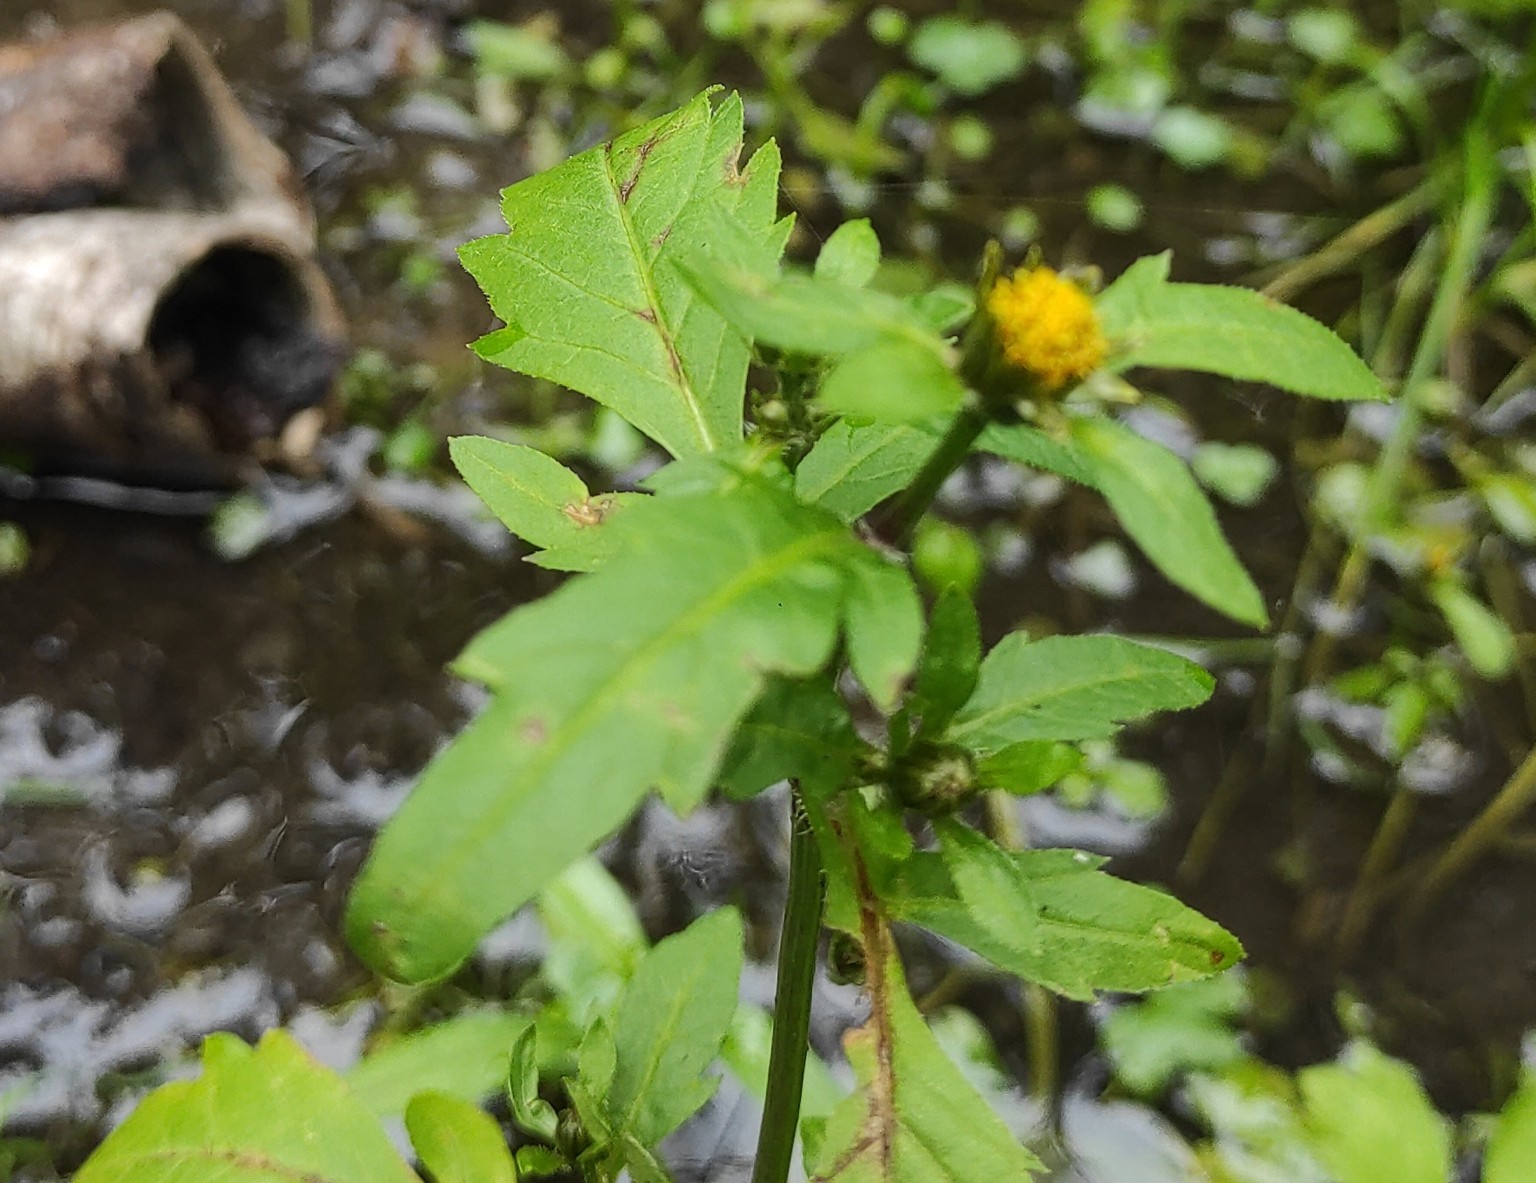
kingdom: Plantae
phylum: Tracheophyta
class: Magnoliopsida
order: Asterales
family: Asteraceae
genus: Bidens
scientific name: Bidens tripartita
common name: Trifid bur-marigold
